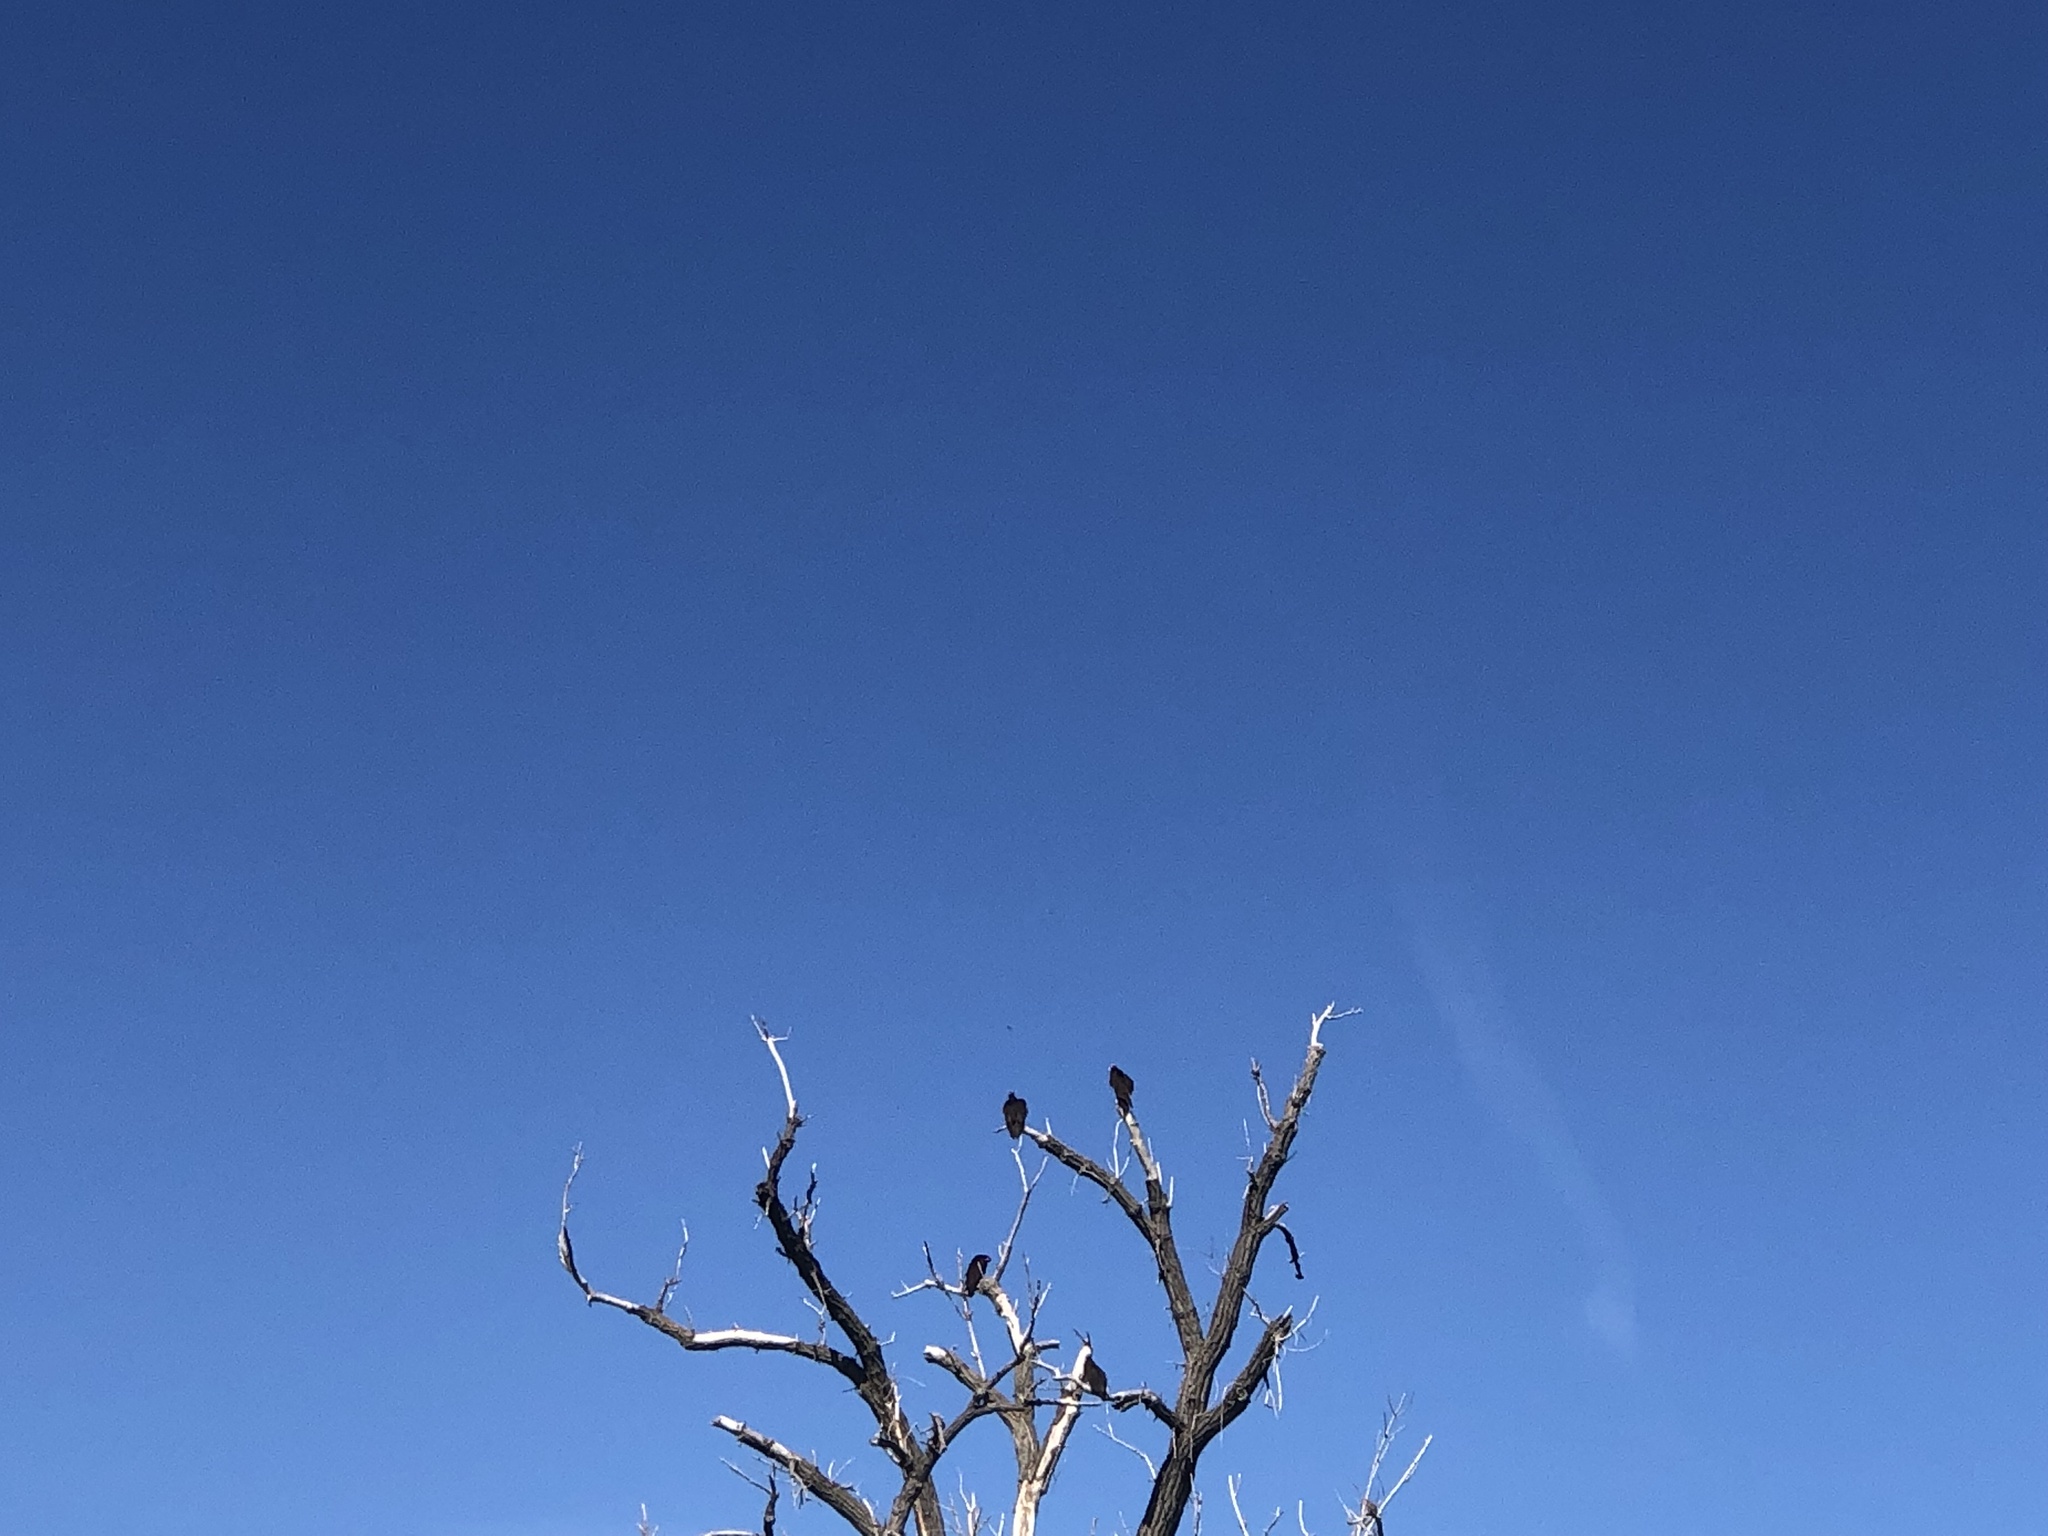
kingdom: Animalia
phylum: Chordata
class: Aves
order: Accipitriformes
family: Cathartidae
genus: Cathartes
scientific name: Cathartes aura
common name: Turkey vulture
